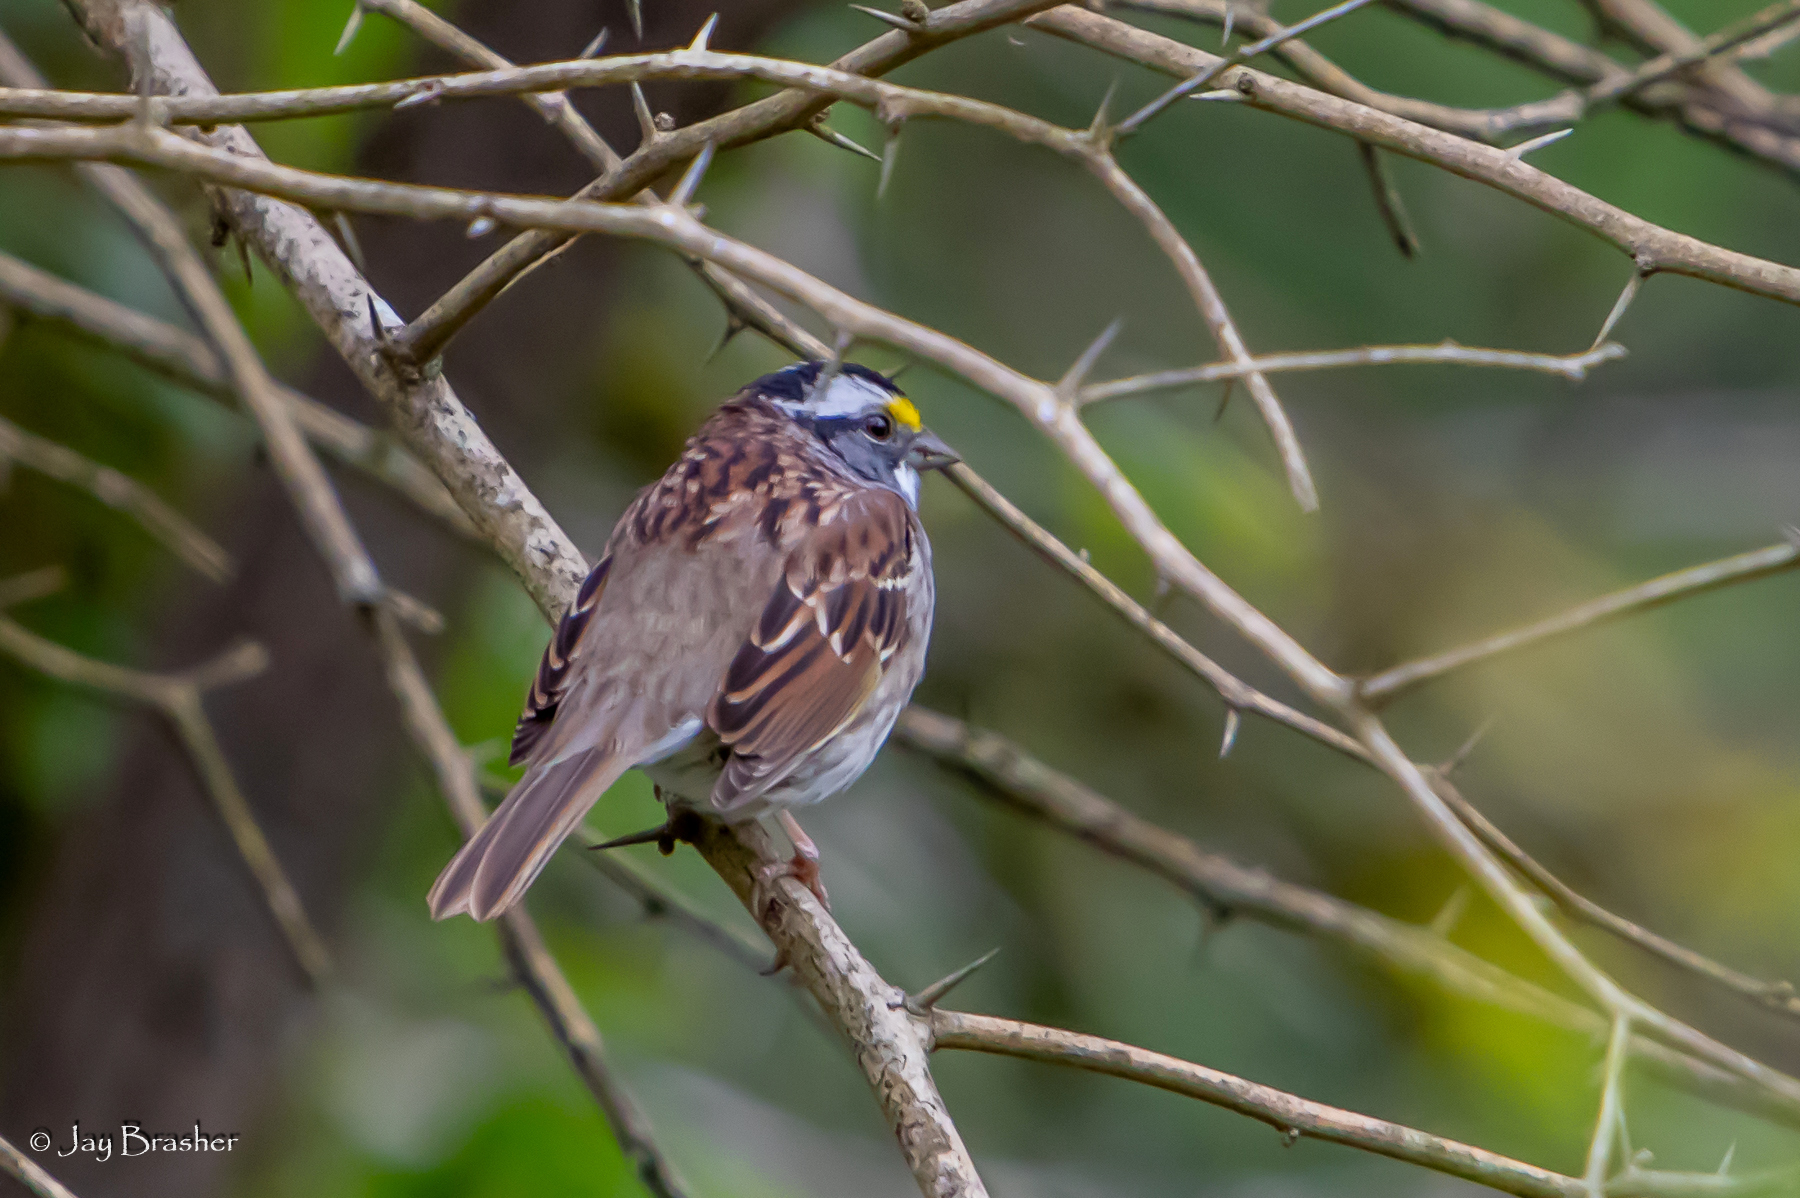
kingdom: Animalia
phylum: Chordata
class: Aves
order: Passeriformes
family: Passerellidae
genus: Zonotrichia
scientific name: Zonotrichia albicollis
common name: White-throated sparrow
